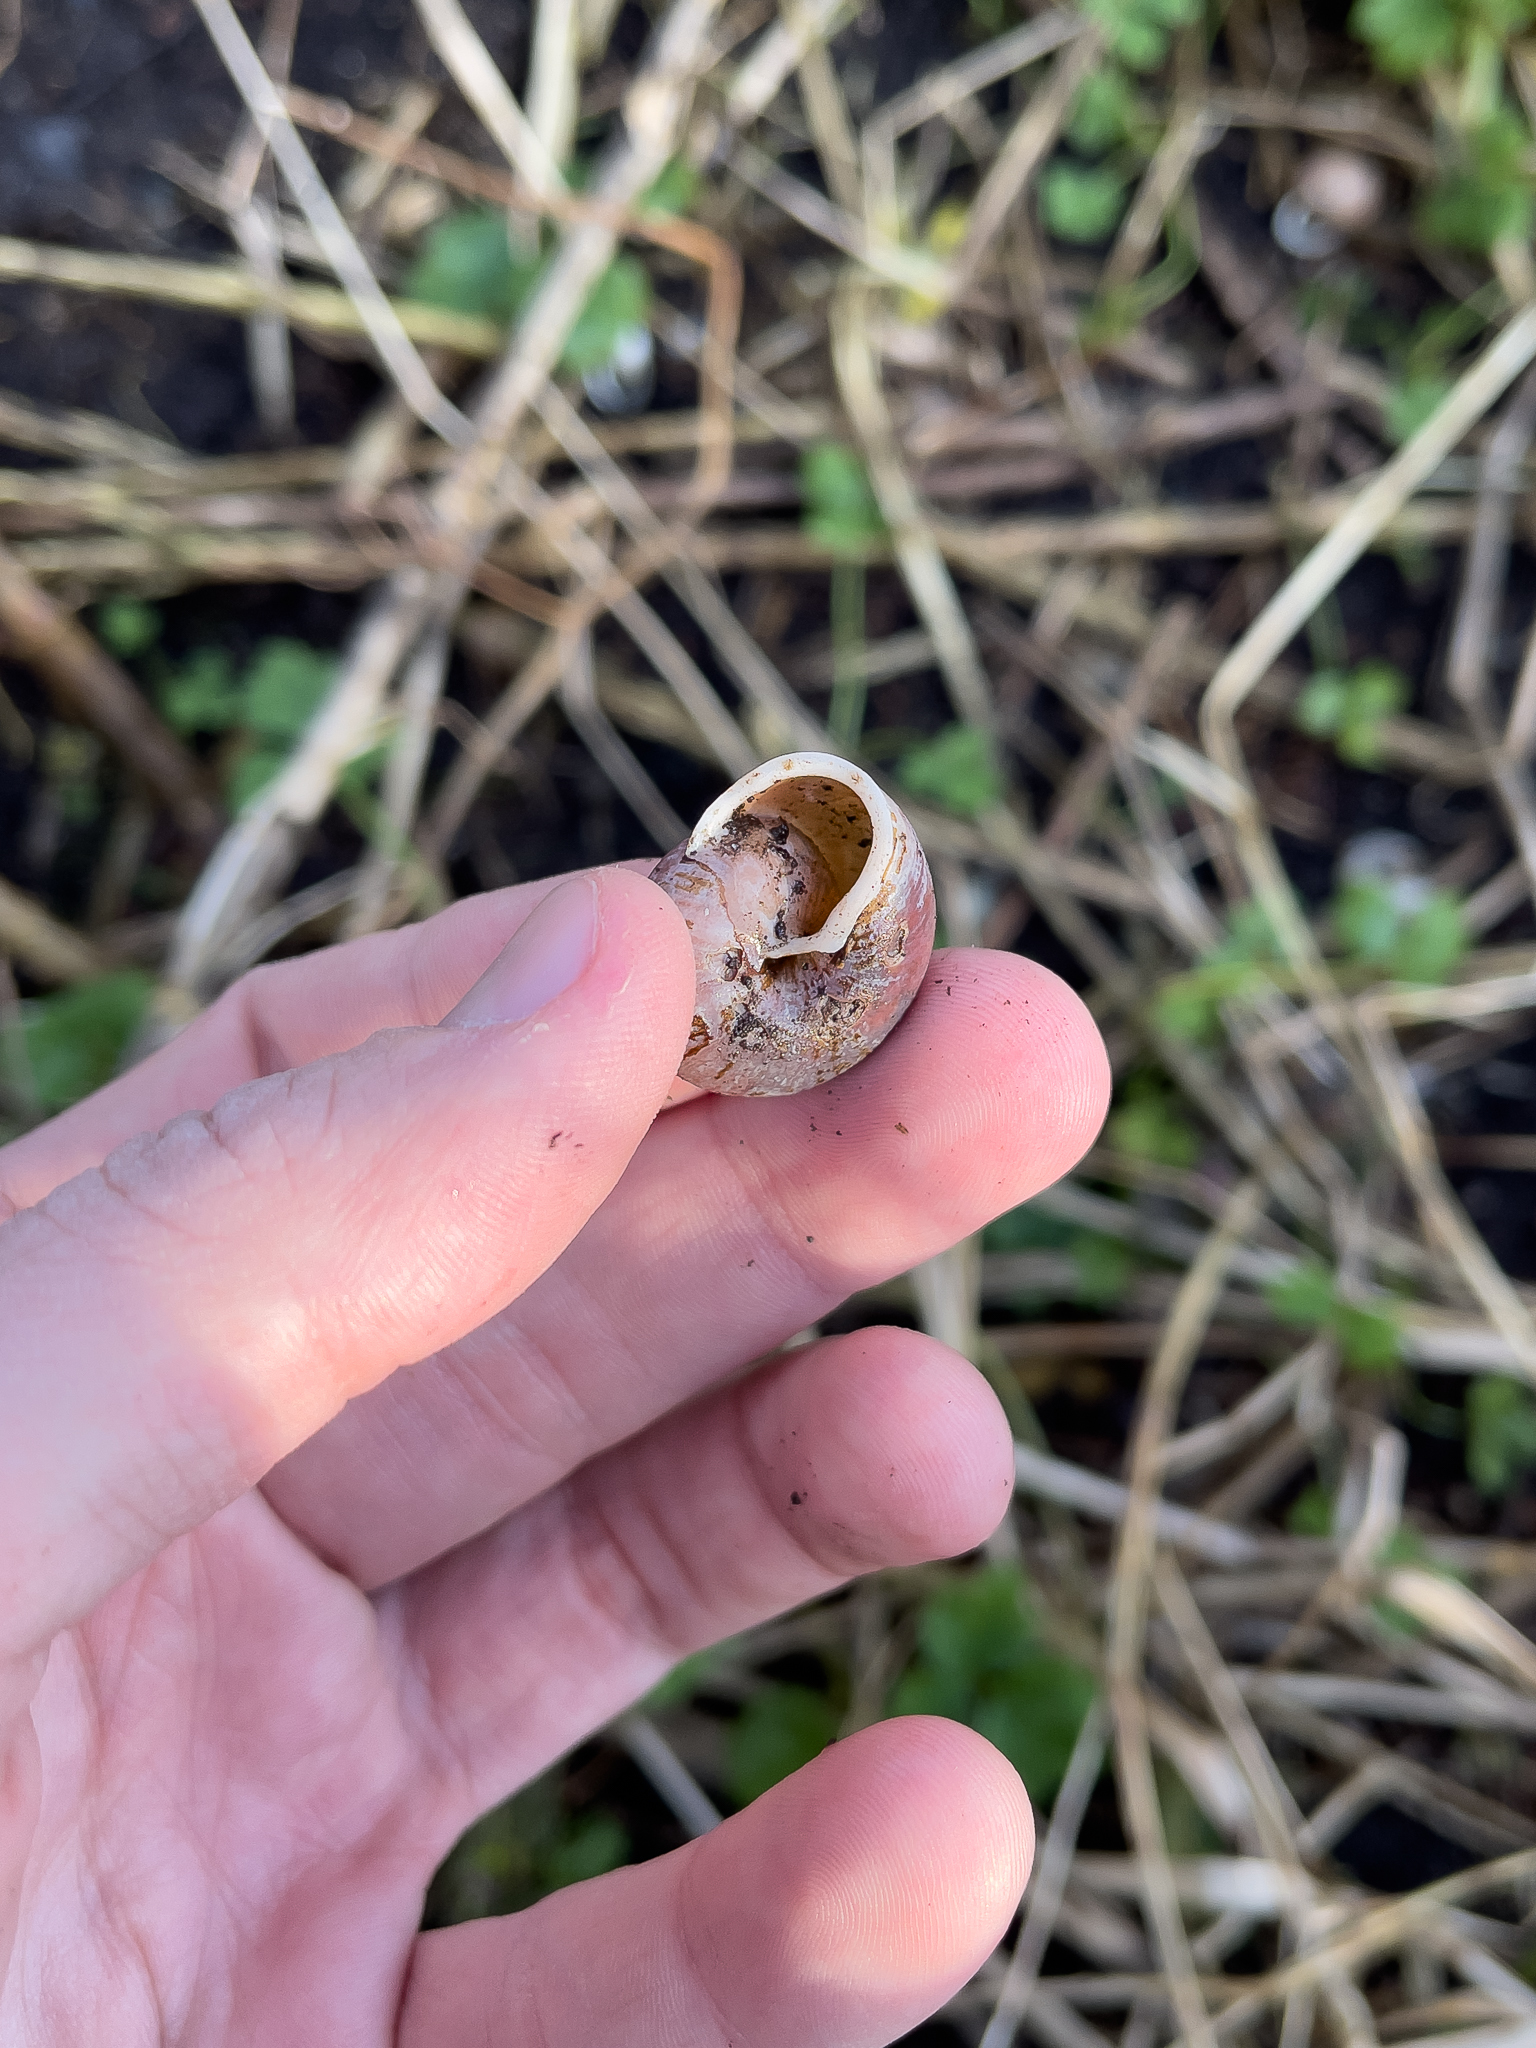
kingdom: Animalia
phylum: Mollusca
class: Gastropoda
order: Stylommatophora
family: Polygyridae
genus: Allogona
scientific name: Allogona townsendiana
